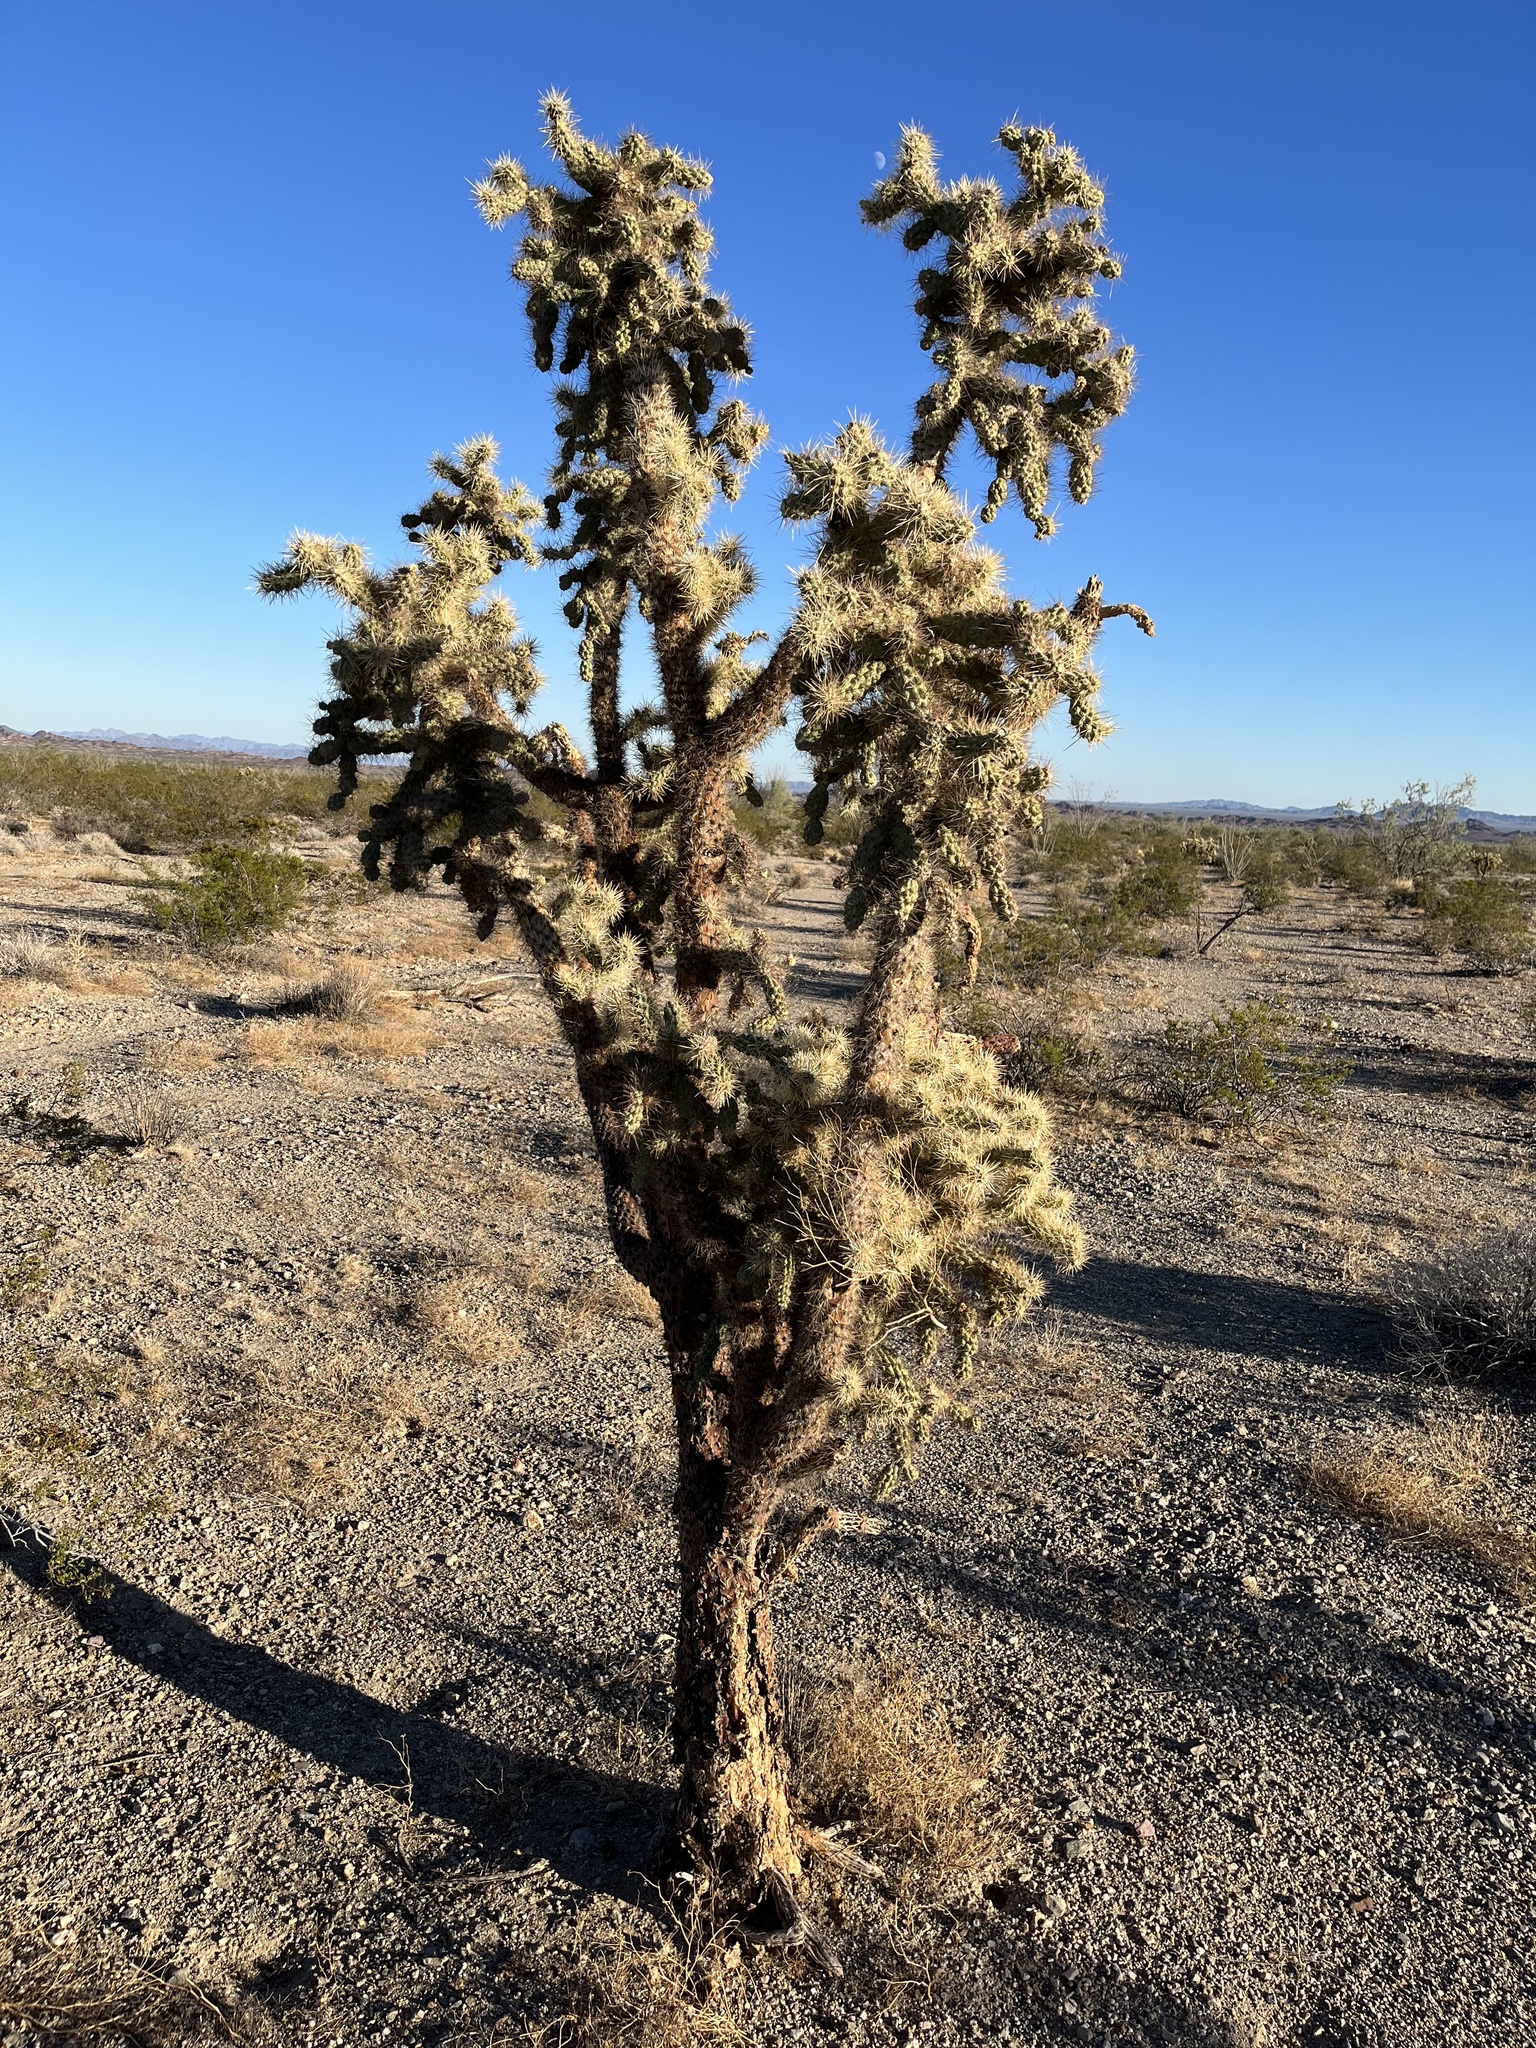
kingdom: Plantae
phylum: Tracheophyta
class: Magnoliopsida
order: Caryophyllales
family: Cactaceae
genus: Cylindropuntia
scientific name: Cylindropuntia munzii
